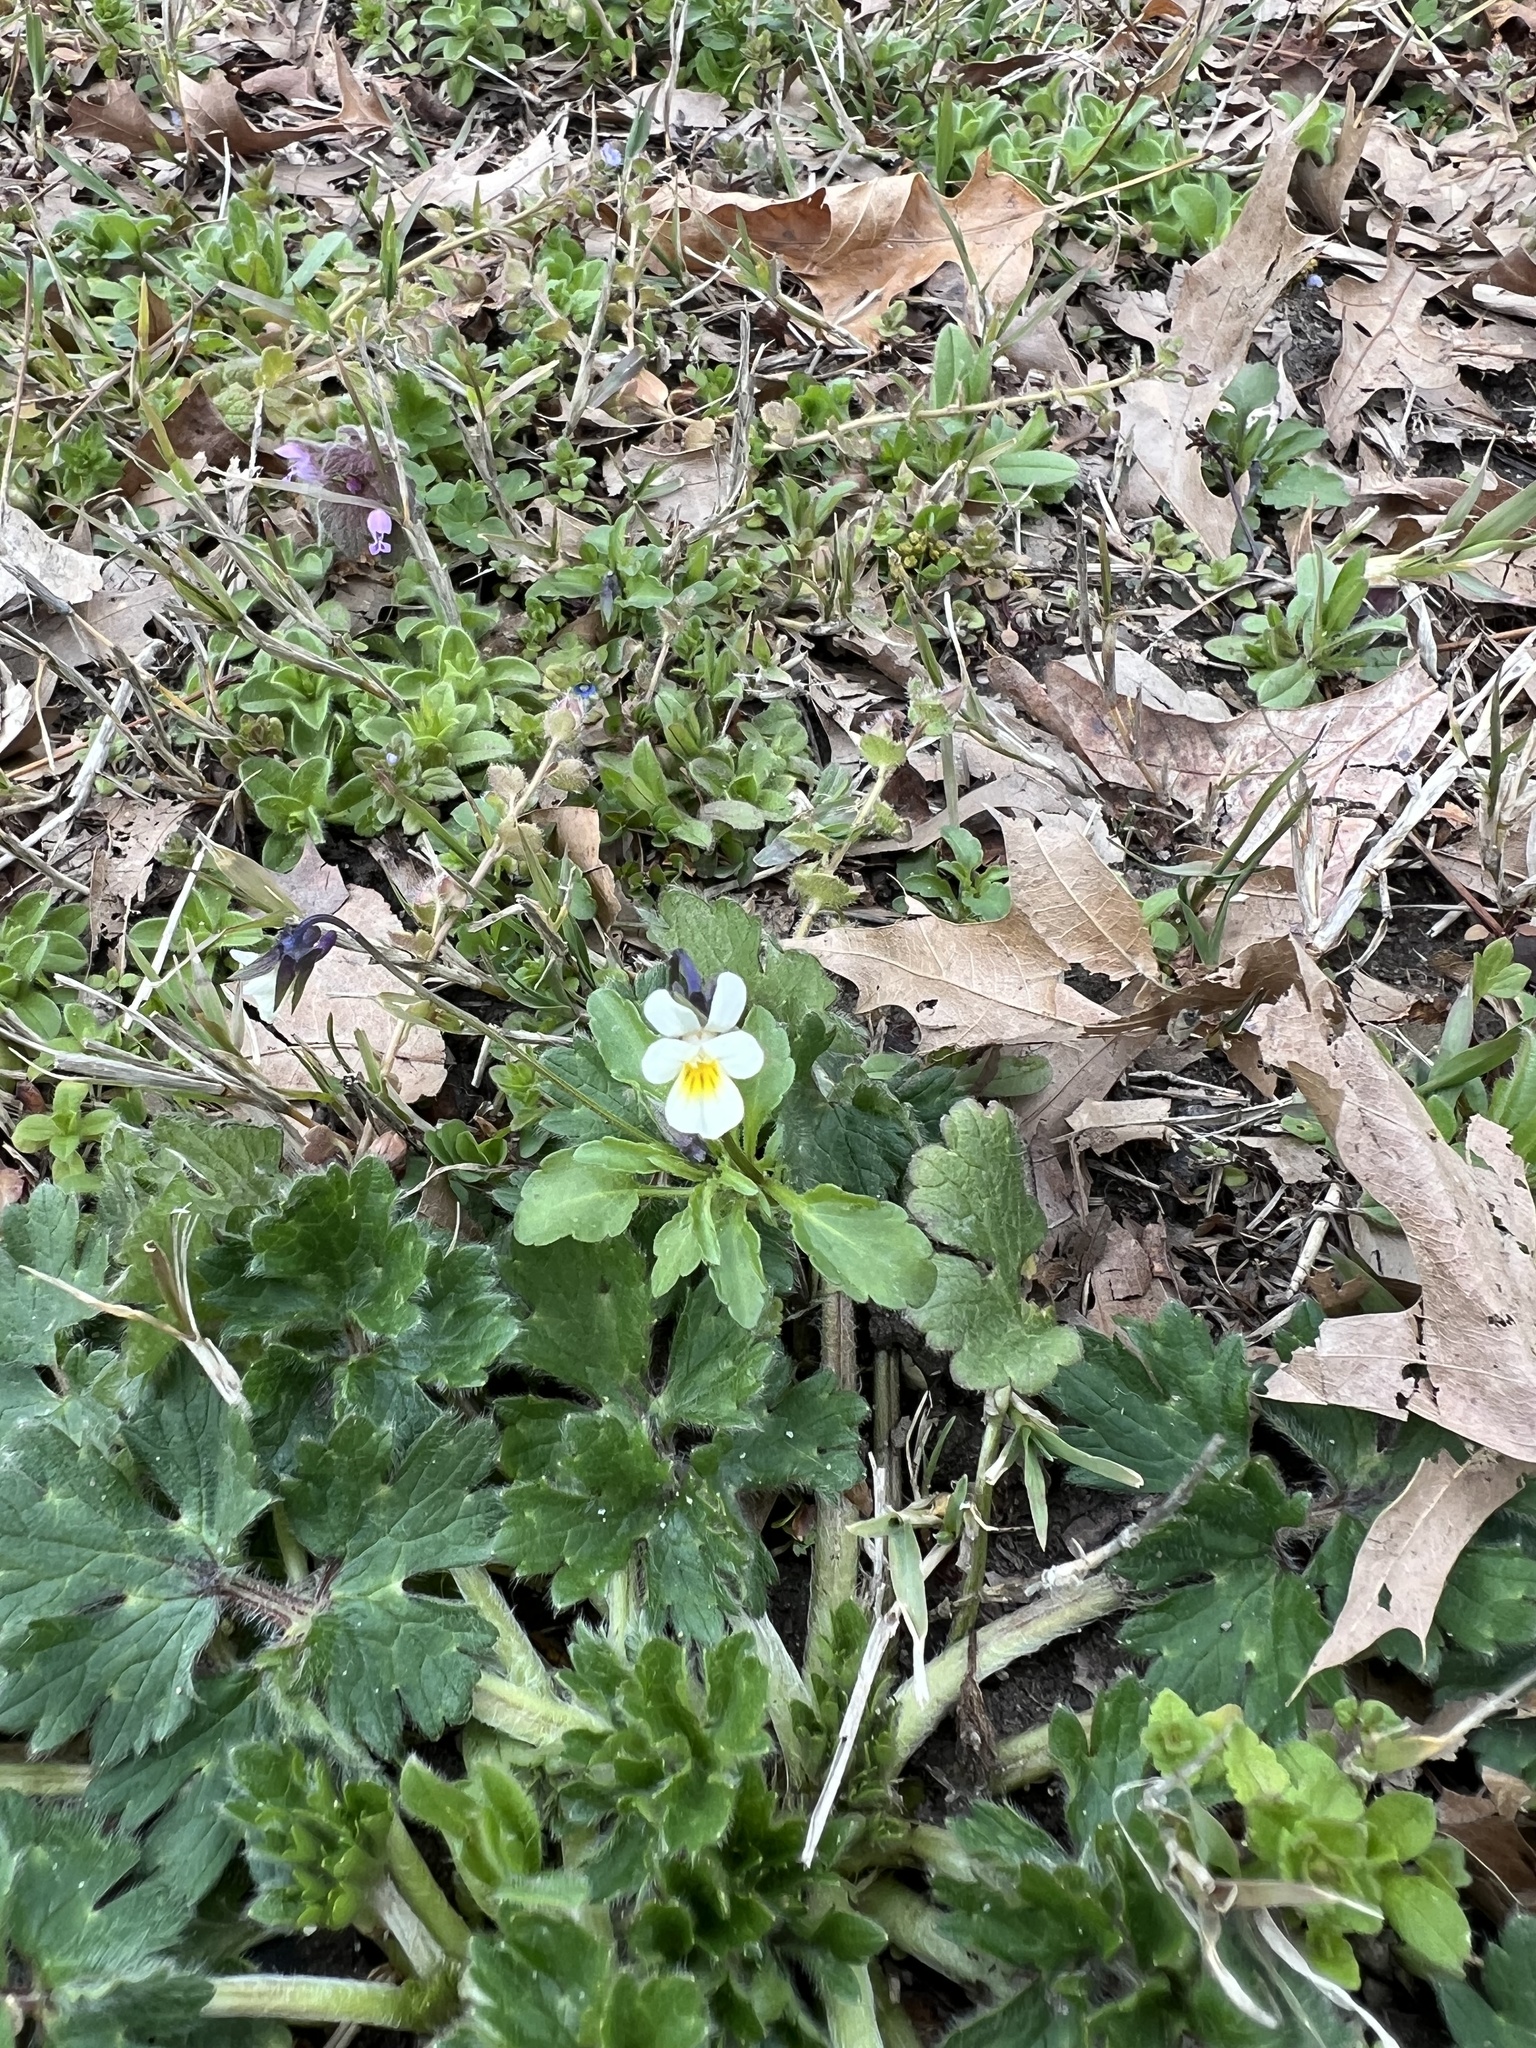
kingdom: Plantae
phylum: Tracheophyta
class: Magnoliopsida
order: Malpighiales
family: Violaceae
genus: Viola
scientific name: Viola arvensis
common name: Field pansy
